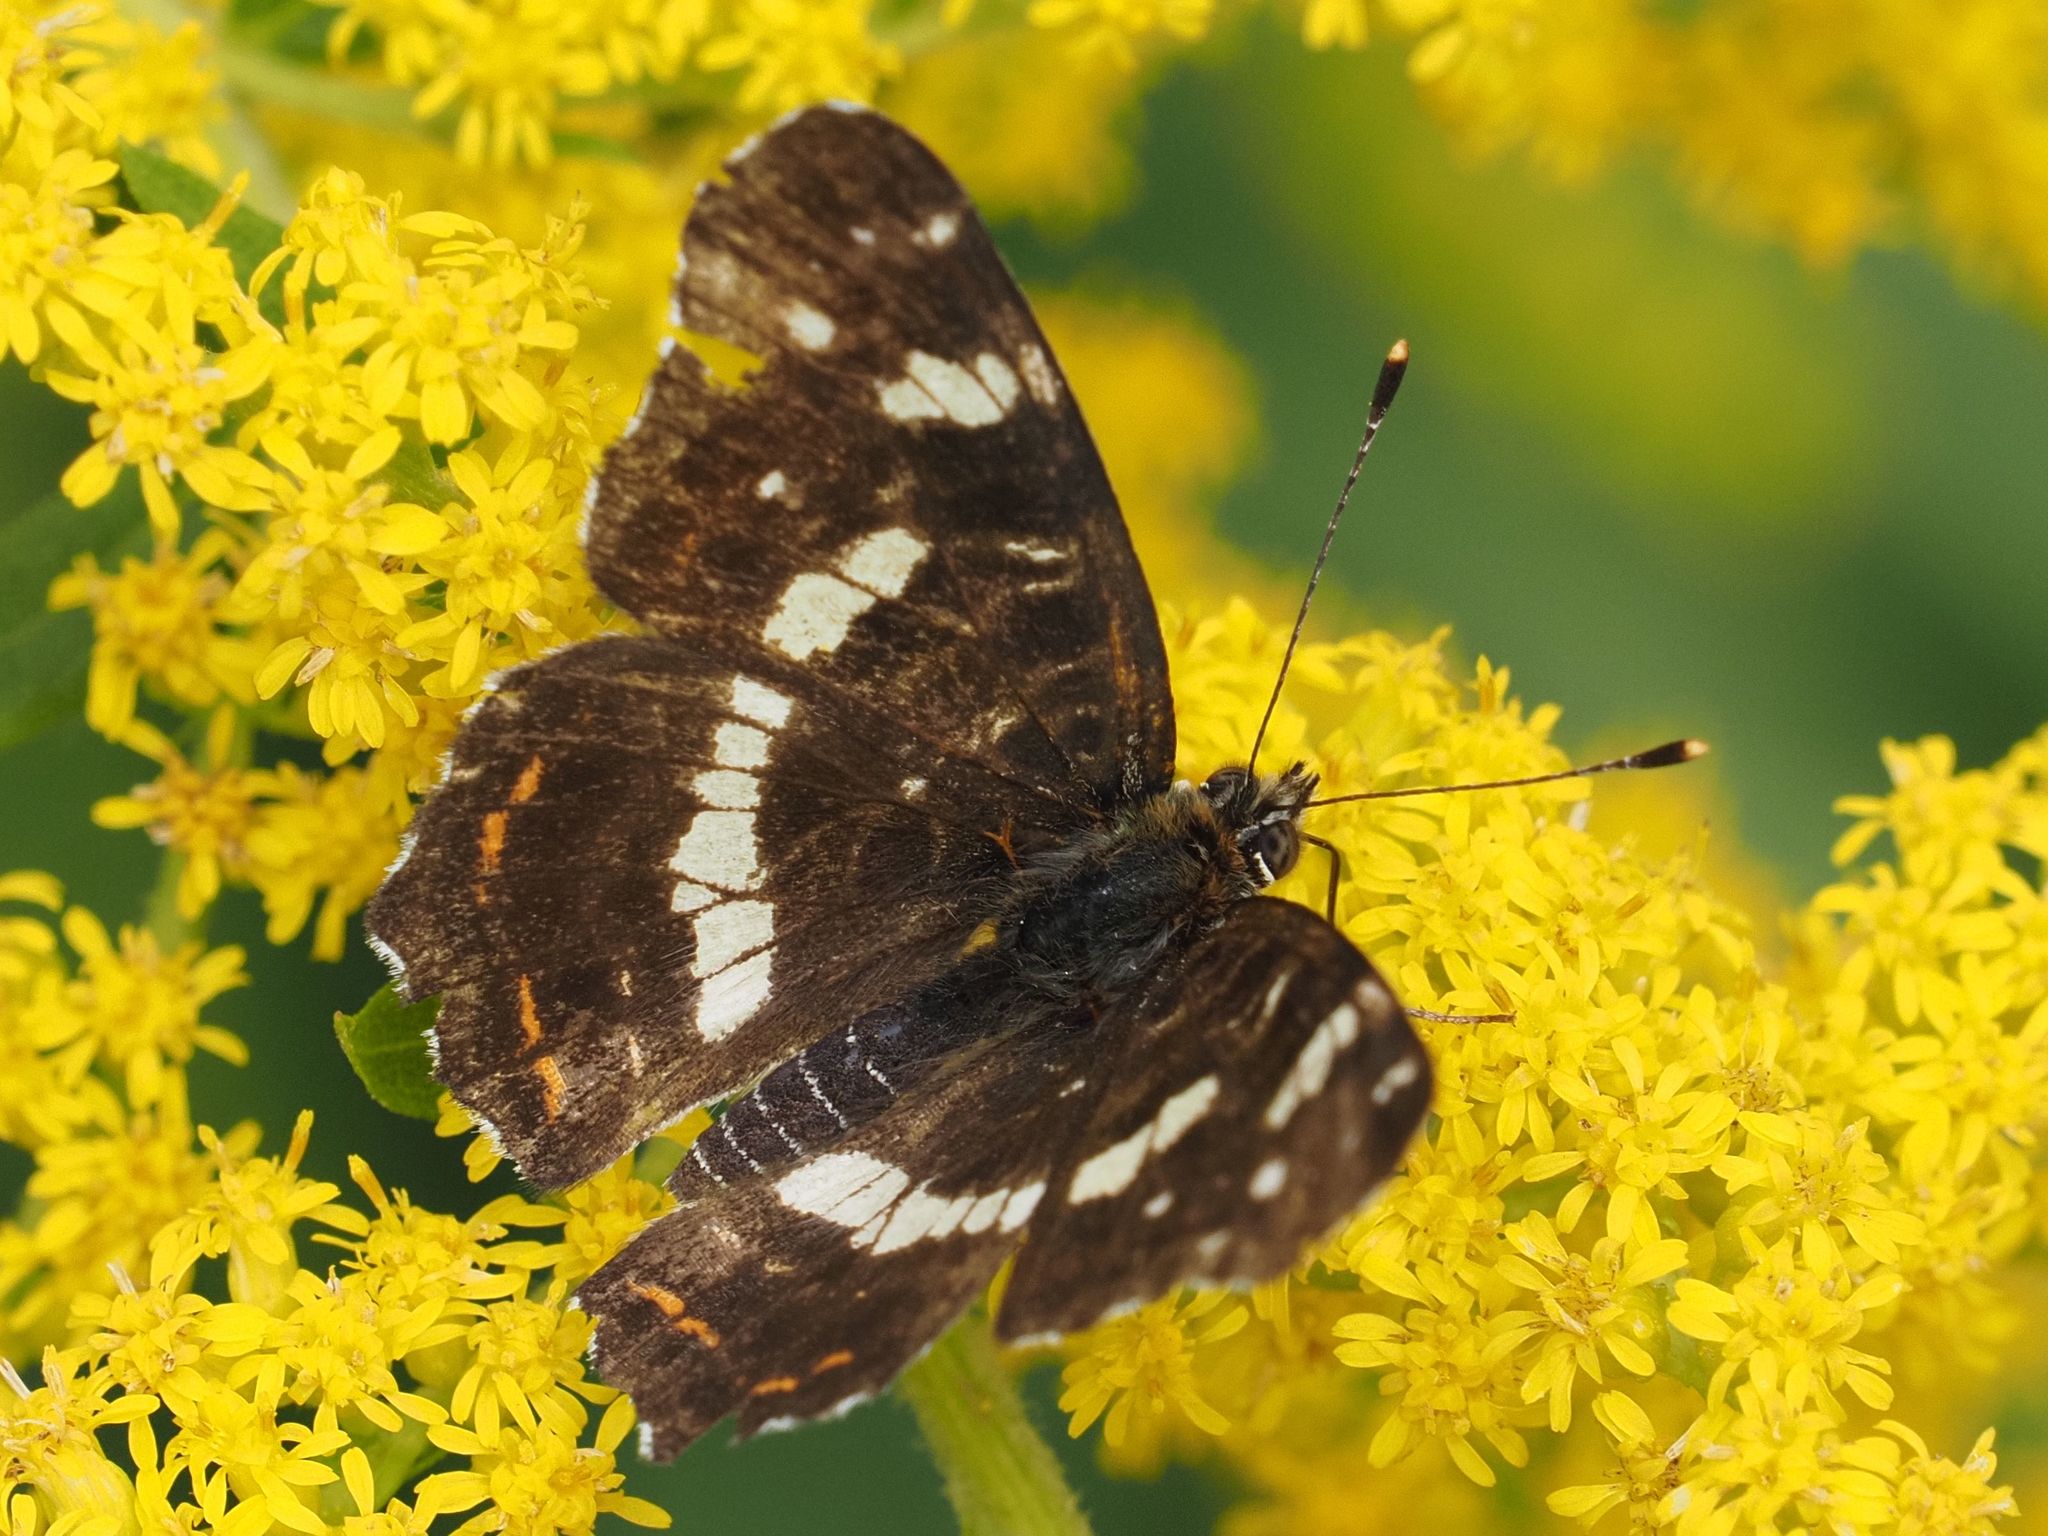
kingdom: Animalia
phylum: Arthropoda
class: Insecta
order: Lepidoptera
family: Nymphalidae
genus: Araschnia
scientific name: Araschnia levana
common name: Map butterfly
